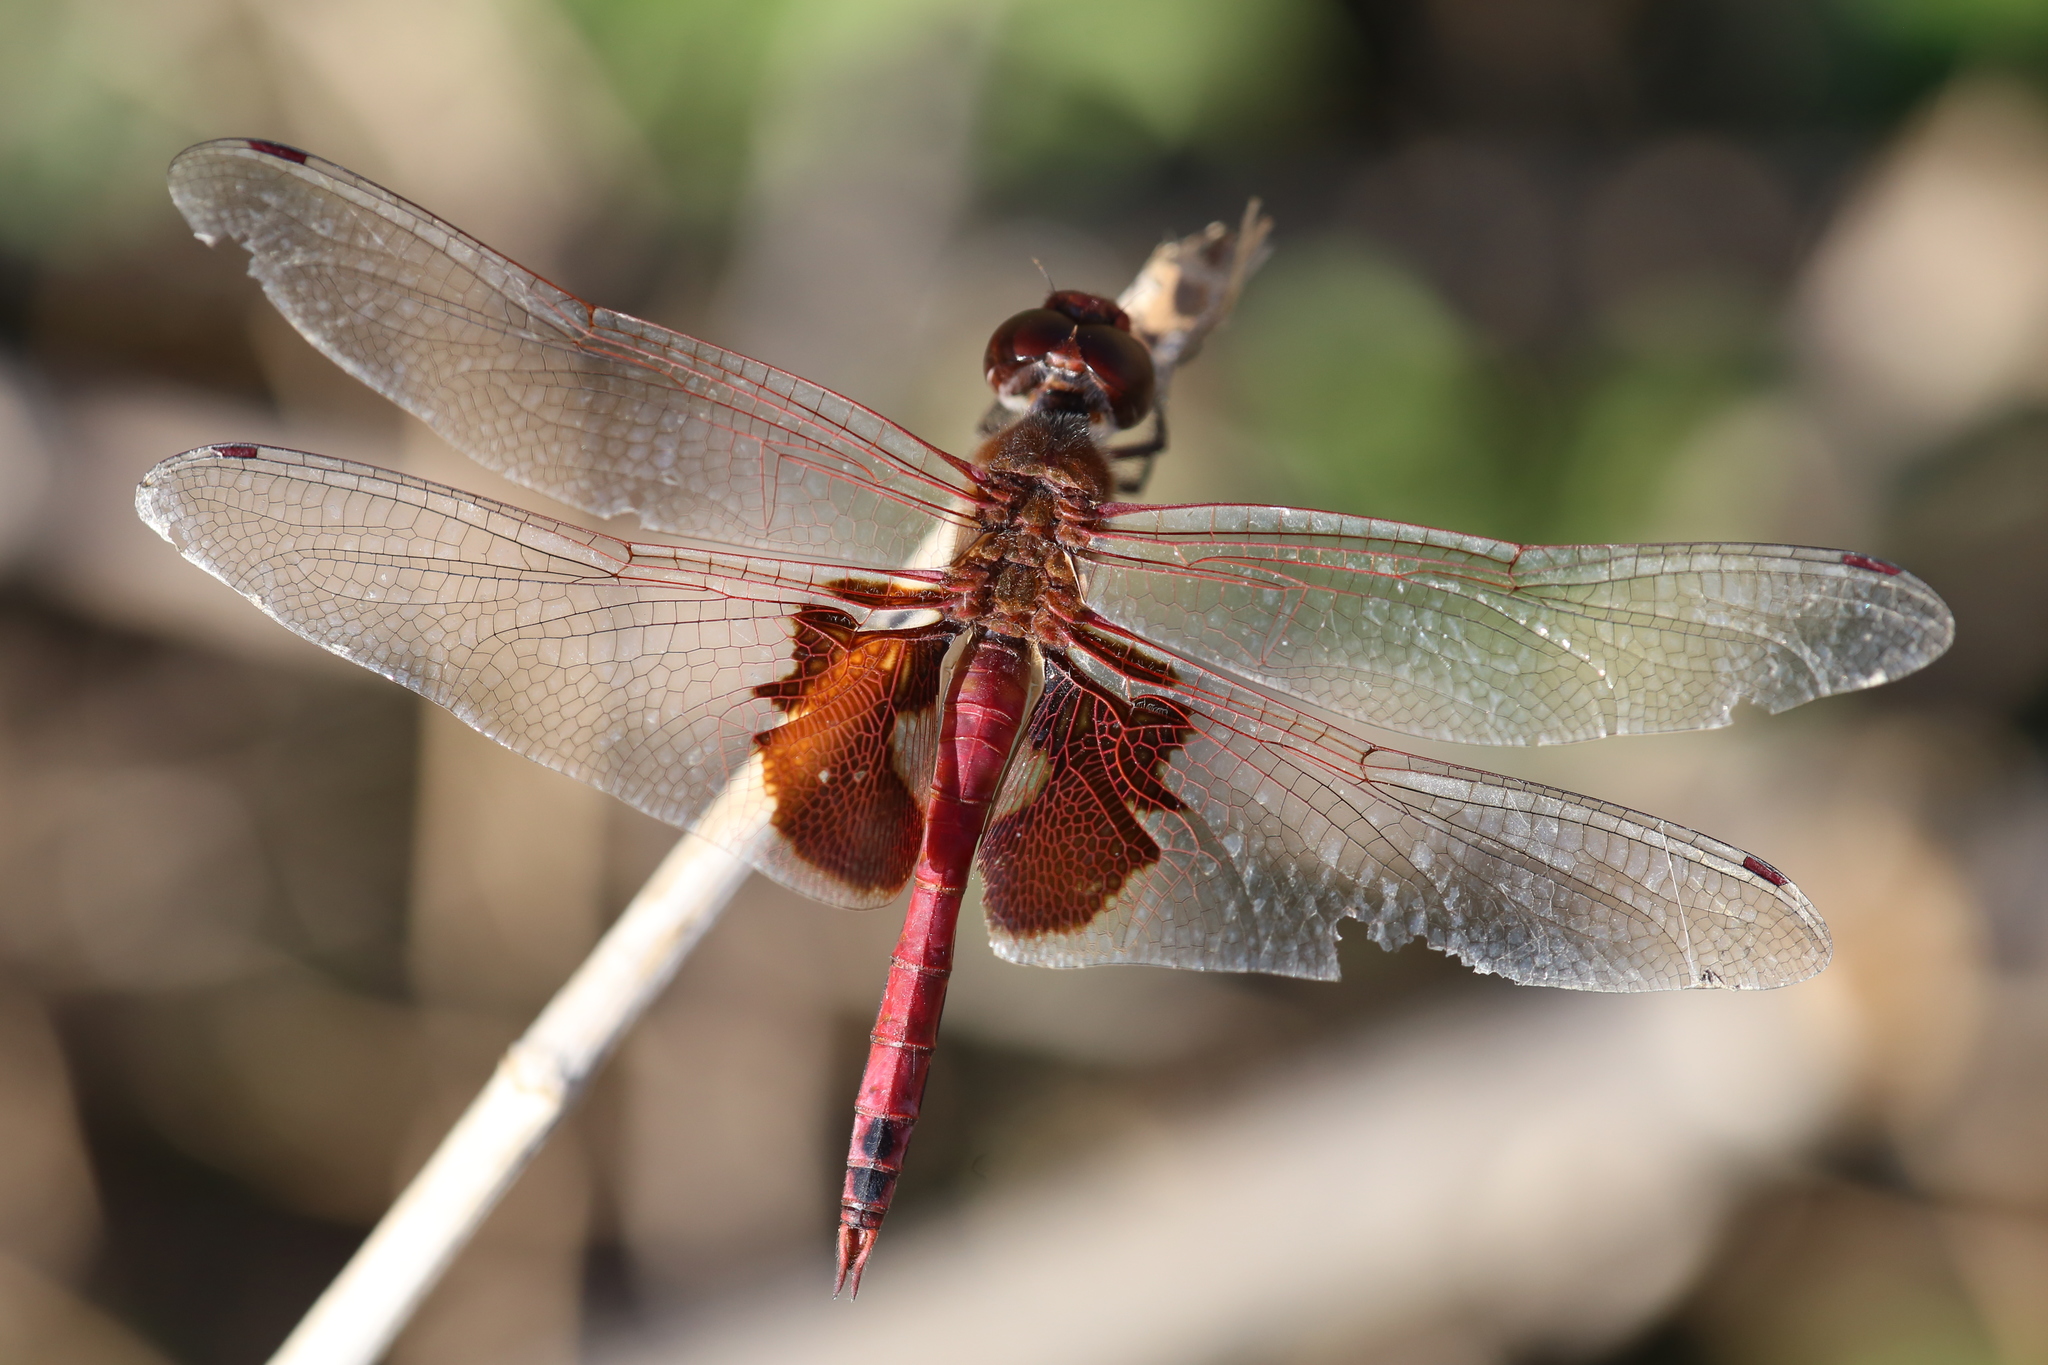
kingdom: Animalia
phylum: Arthropoda
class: Insecta
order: Odonata
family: Libellulidae
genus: Tramea
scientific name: Tramea onusta
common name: Red saddlebags
